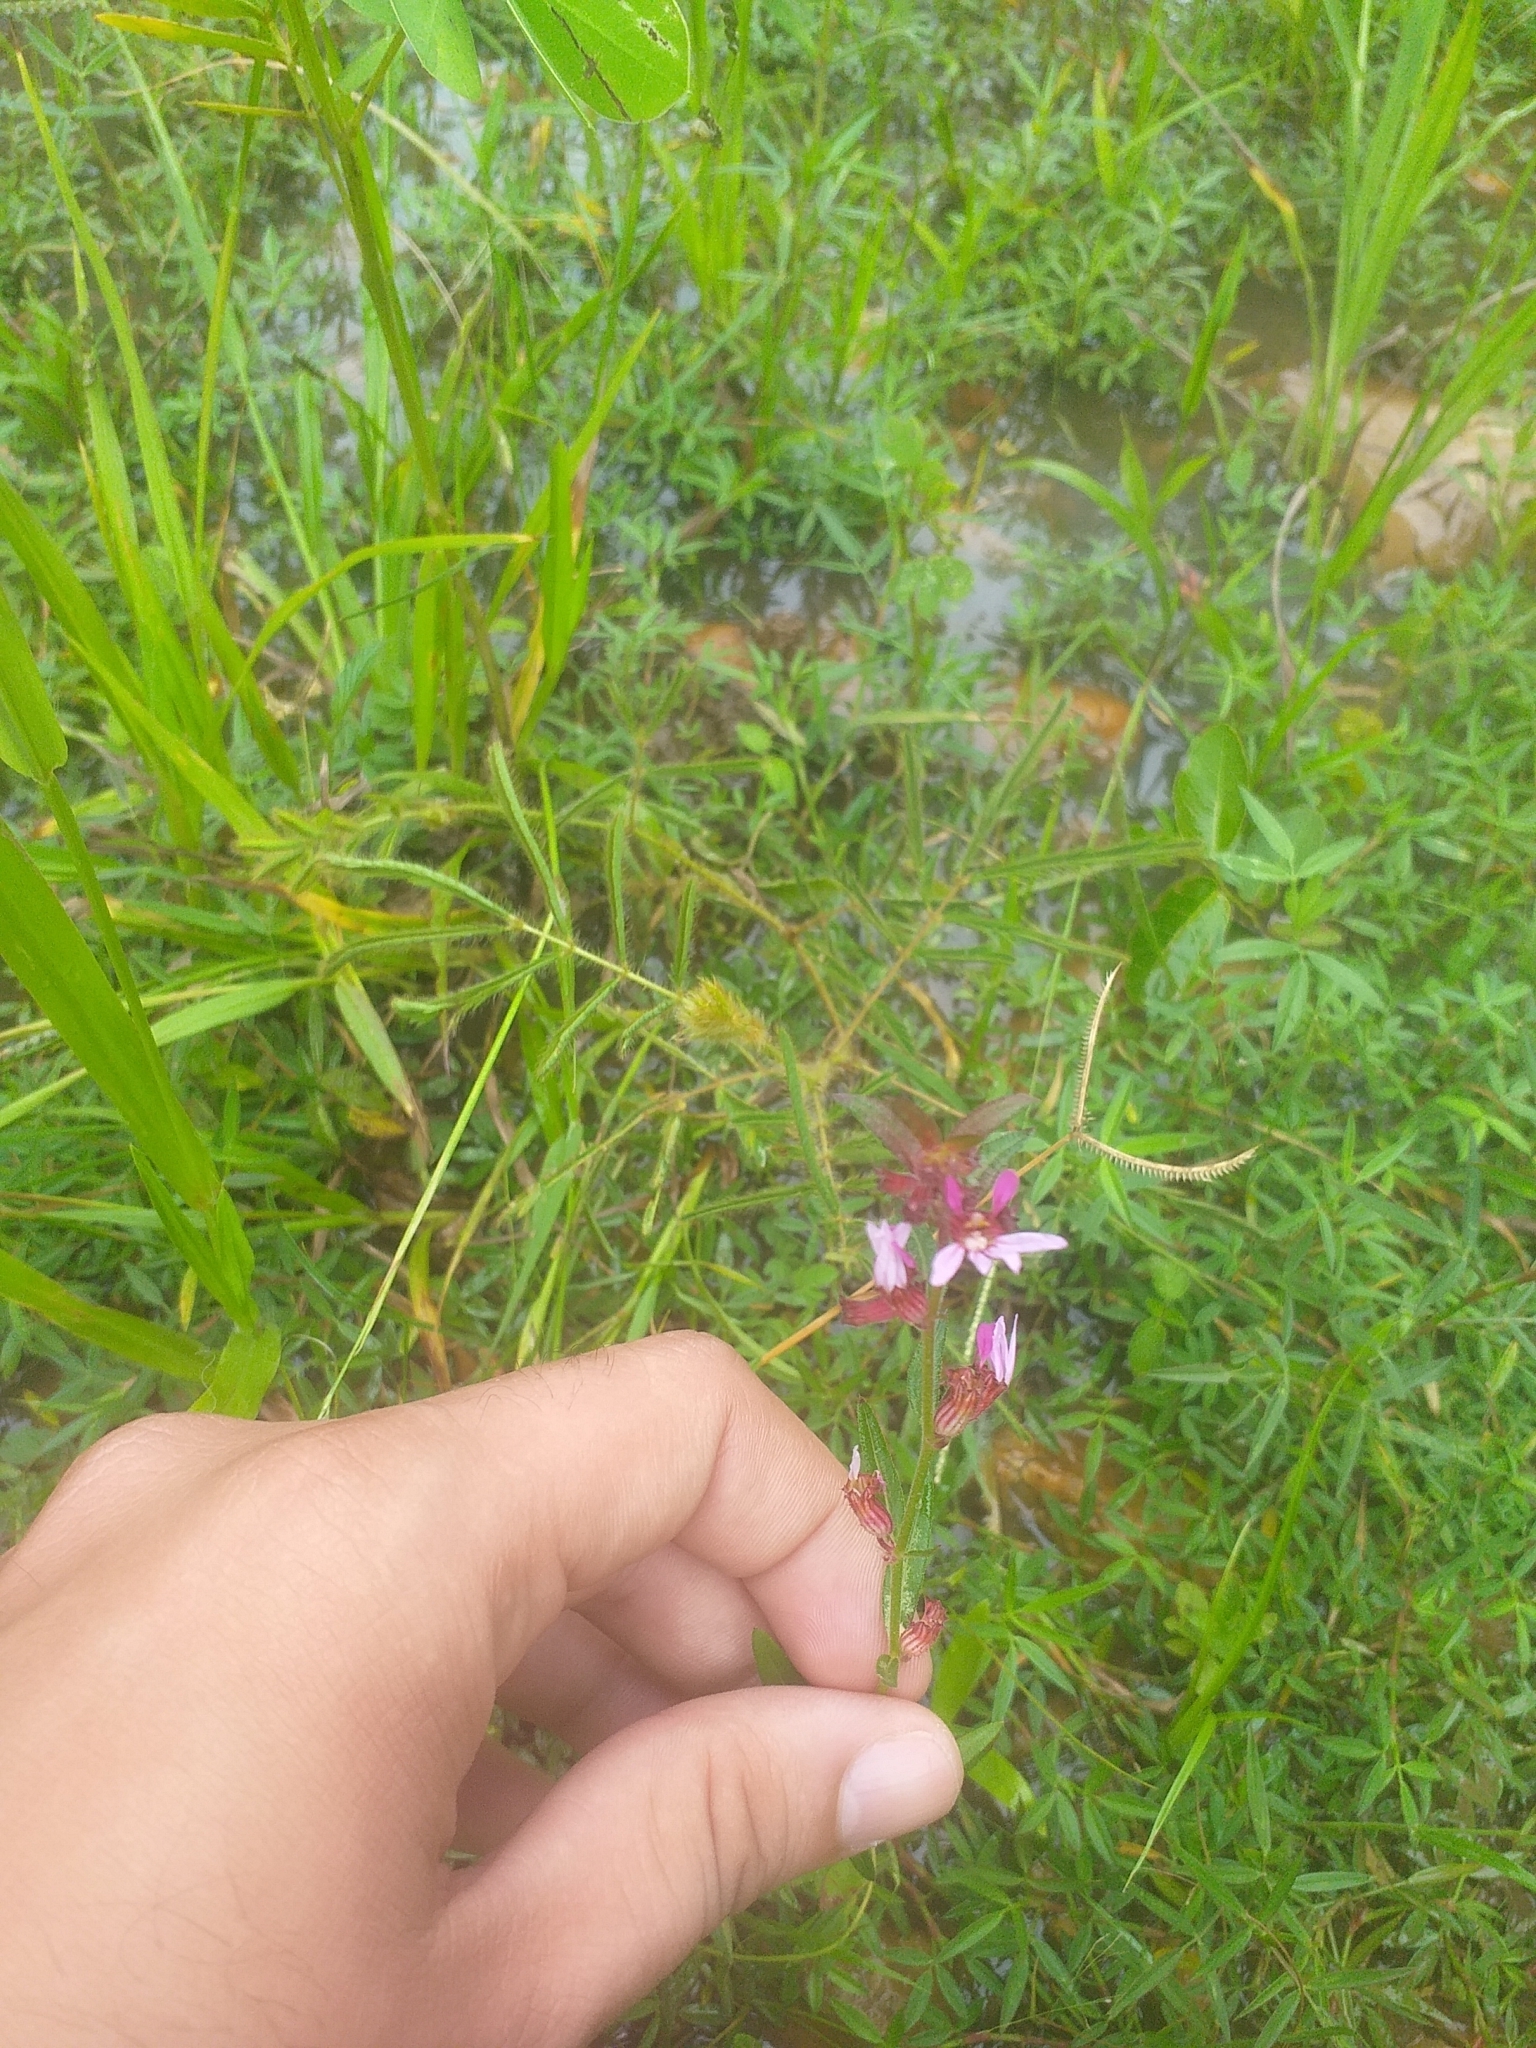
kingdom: Plantae
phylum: Tracheophyta
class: Magnoliopsida
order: Myrtales
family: Lythraceae
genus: Cuphea
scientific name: Cuphea campestris
